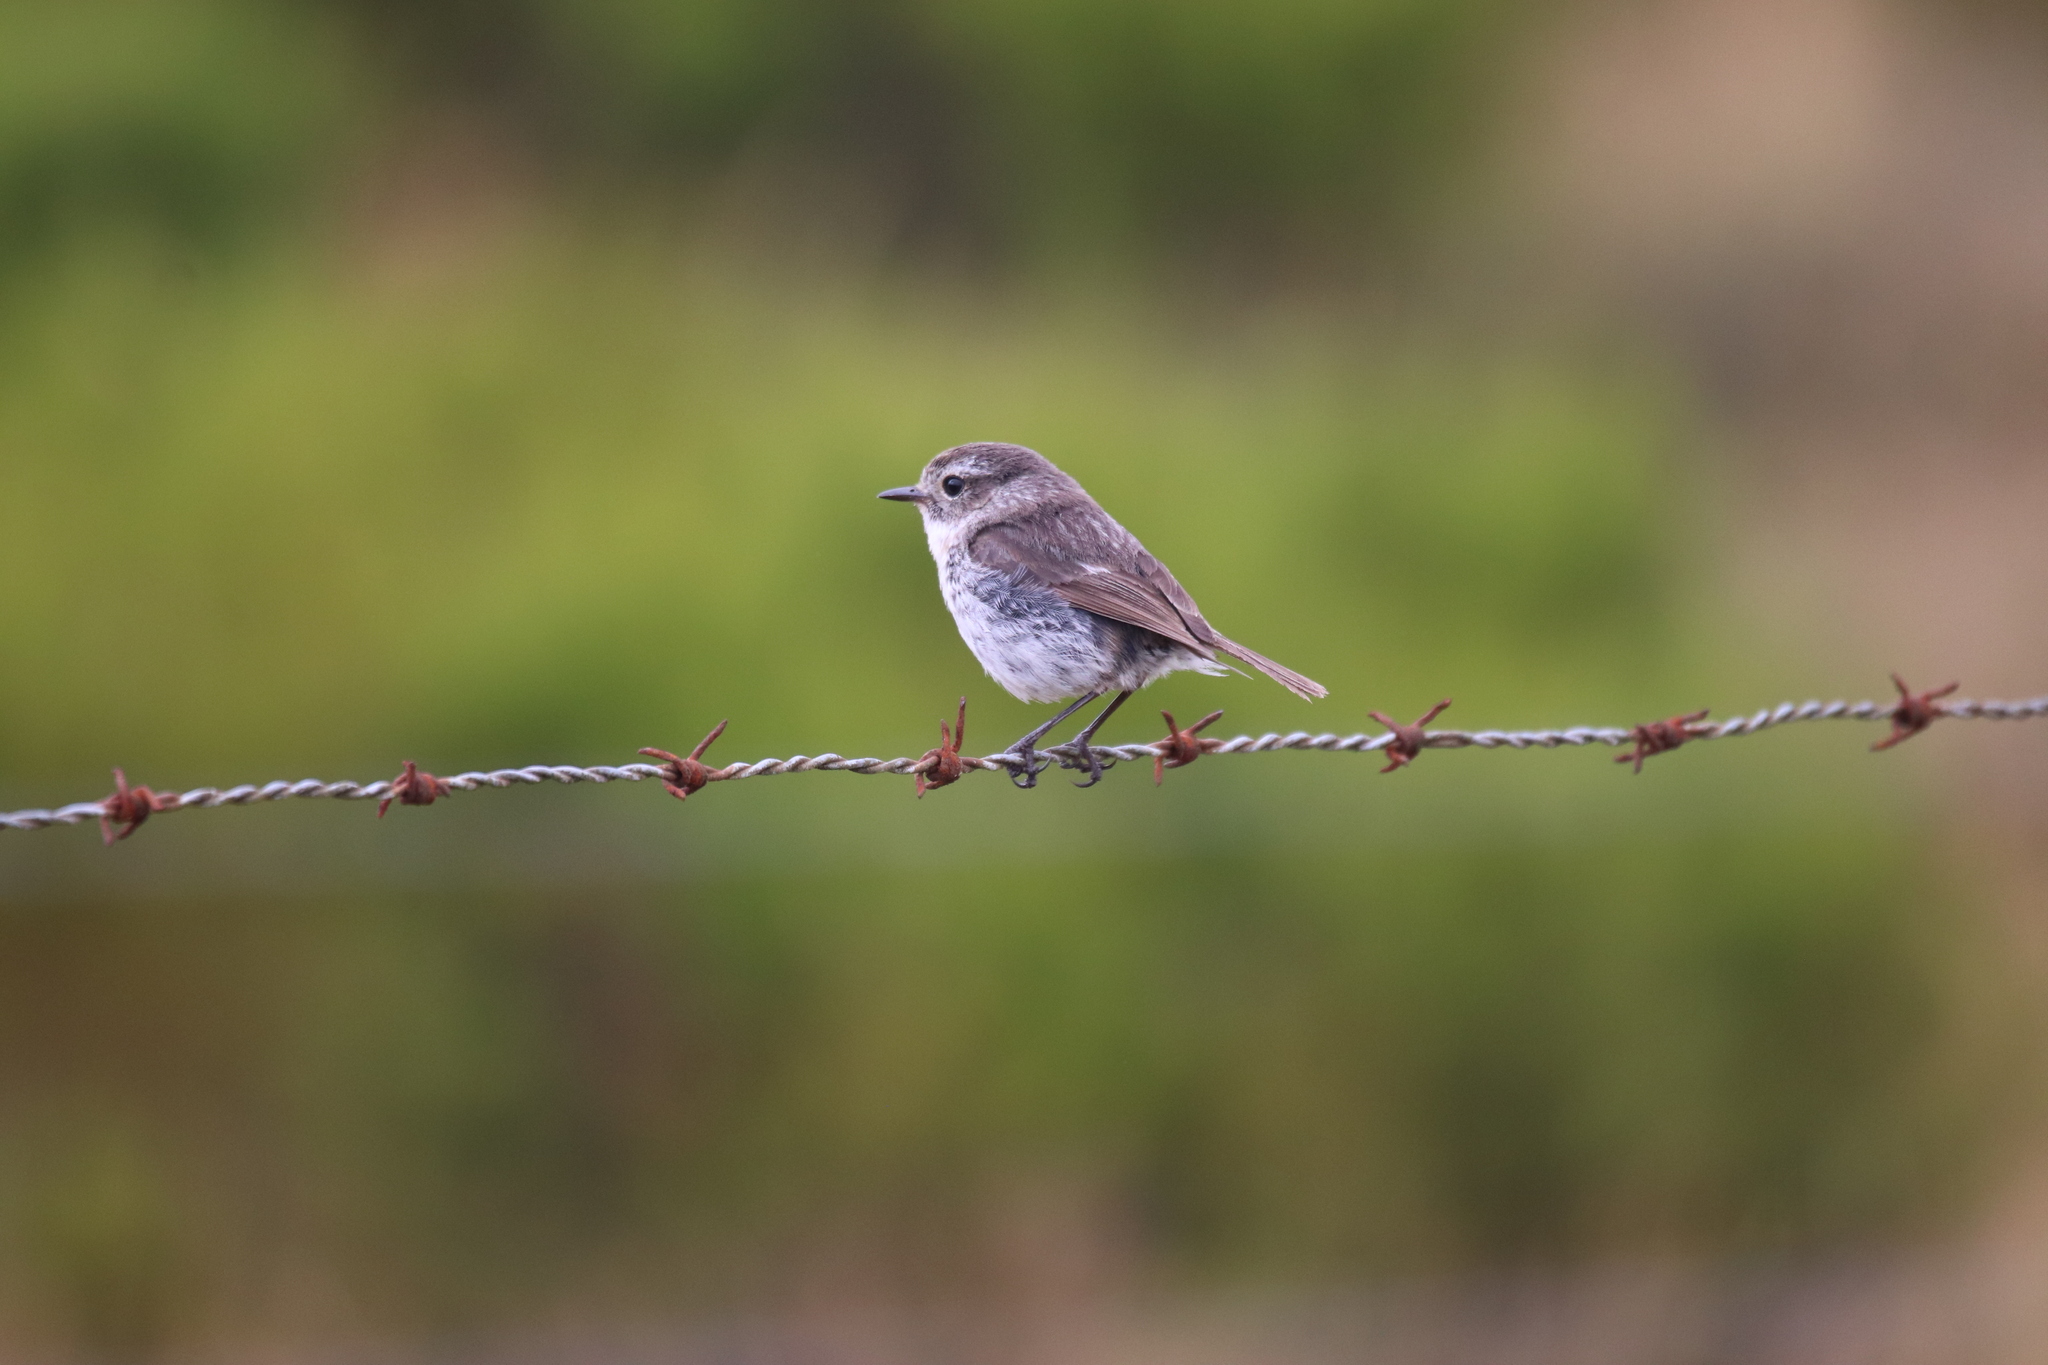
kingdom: Animalia
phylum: Chordata
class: Aves
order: Passeriformes
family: Muscicapidae
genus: Saxicola
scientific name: Saxicola tectes
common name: Reunion stonechat
